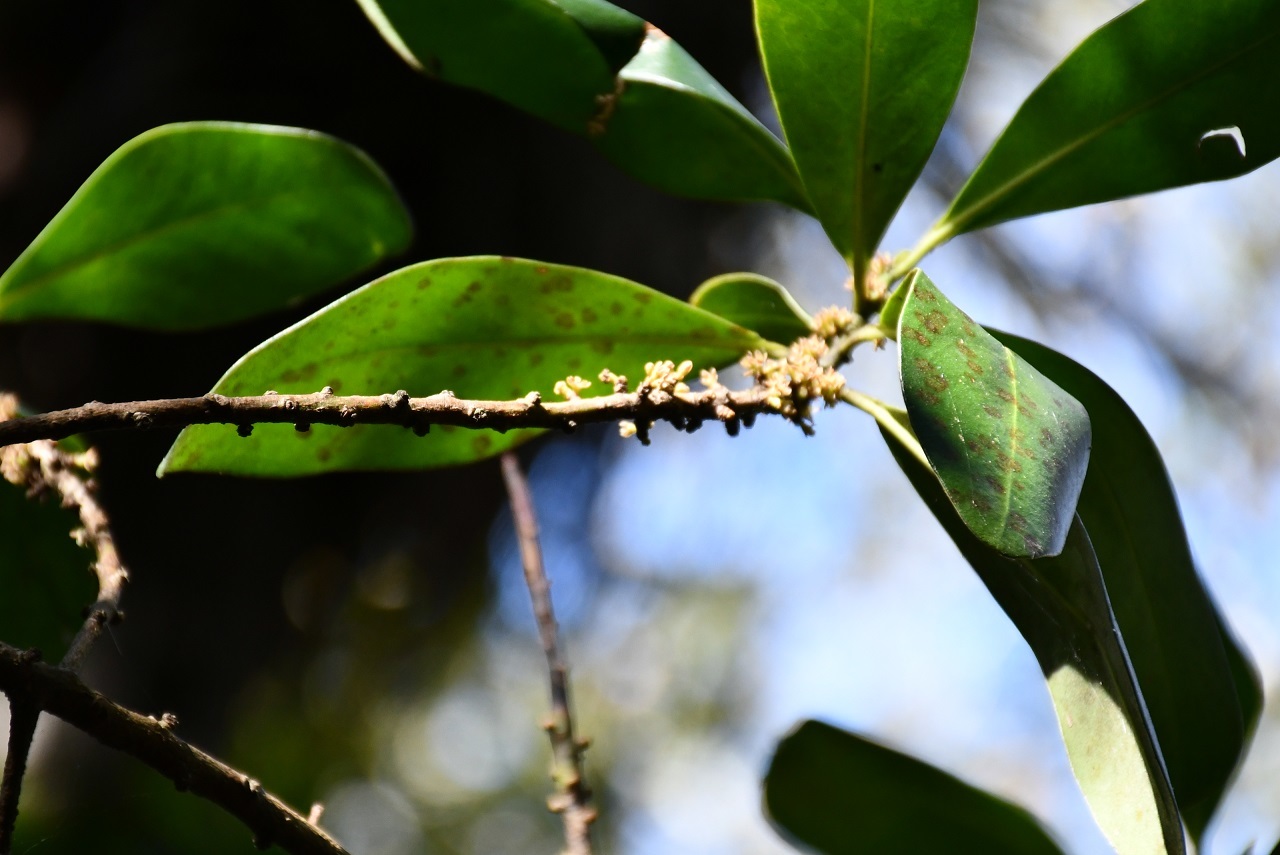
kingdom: Plantae
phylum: Tracheophyta
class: Magnoliopsida
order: Ericales
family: Primulaceae
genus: Myrsine
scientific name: Myrsine juergensenii
